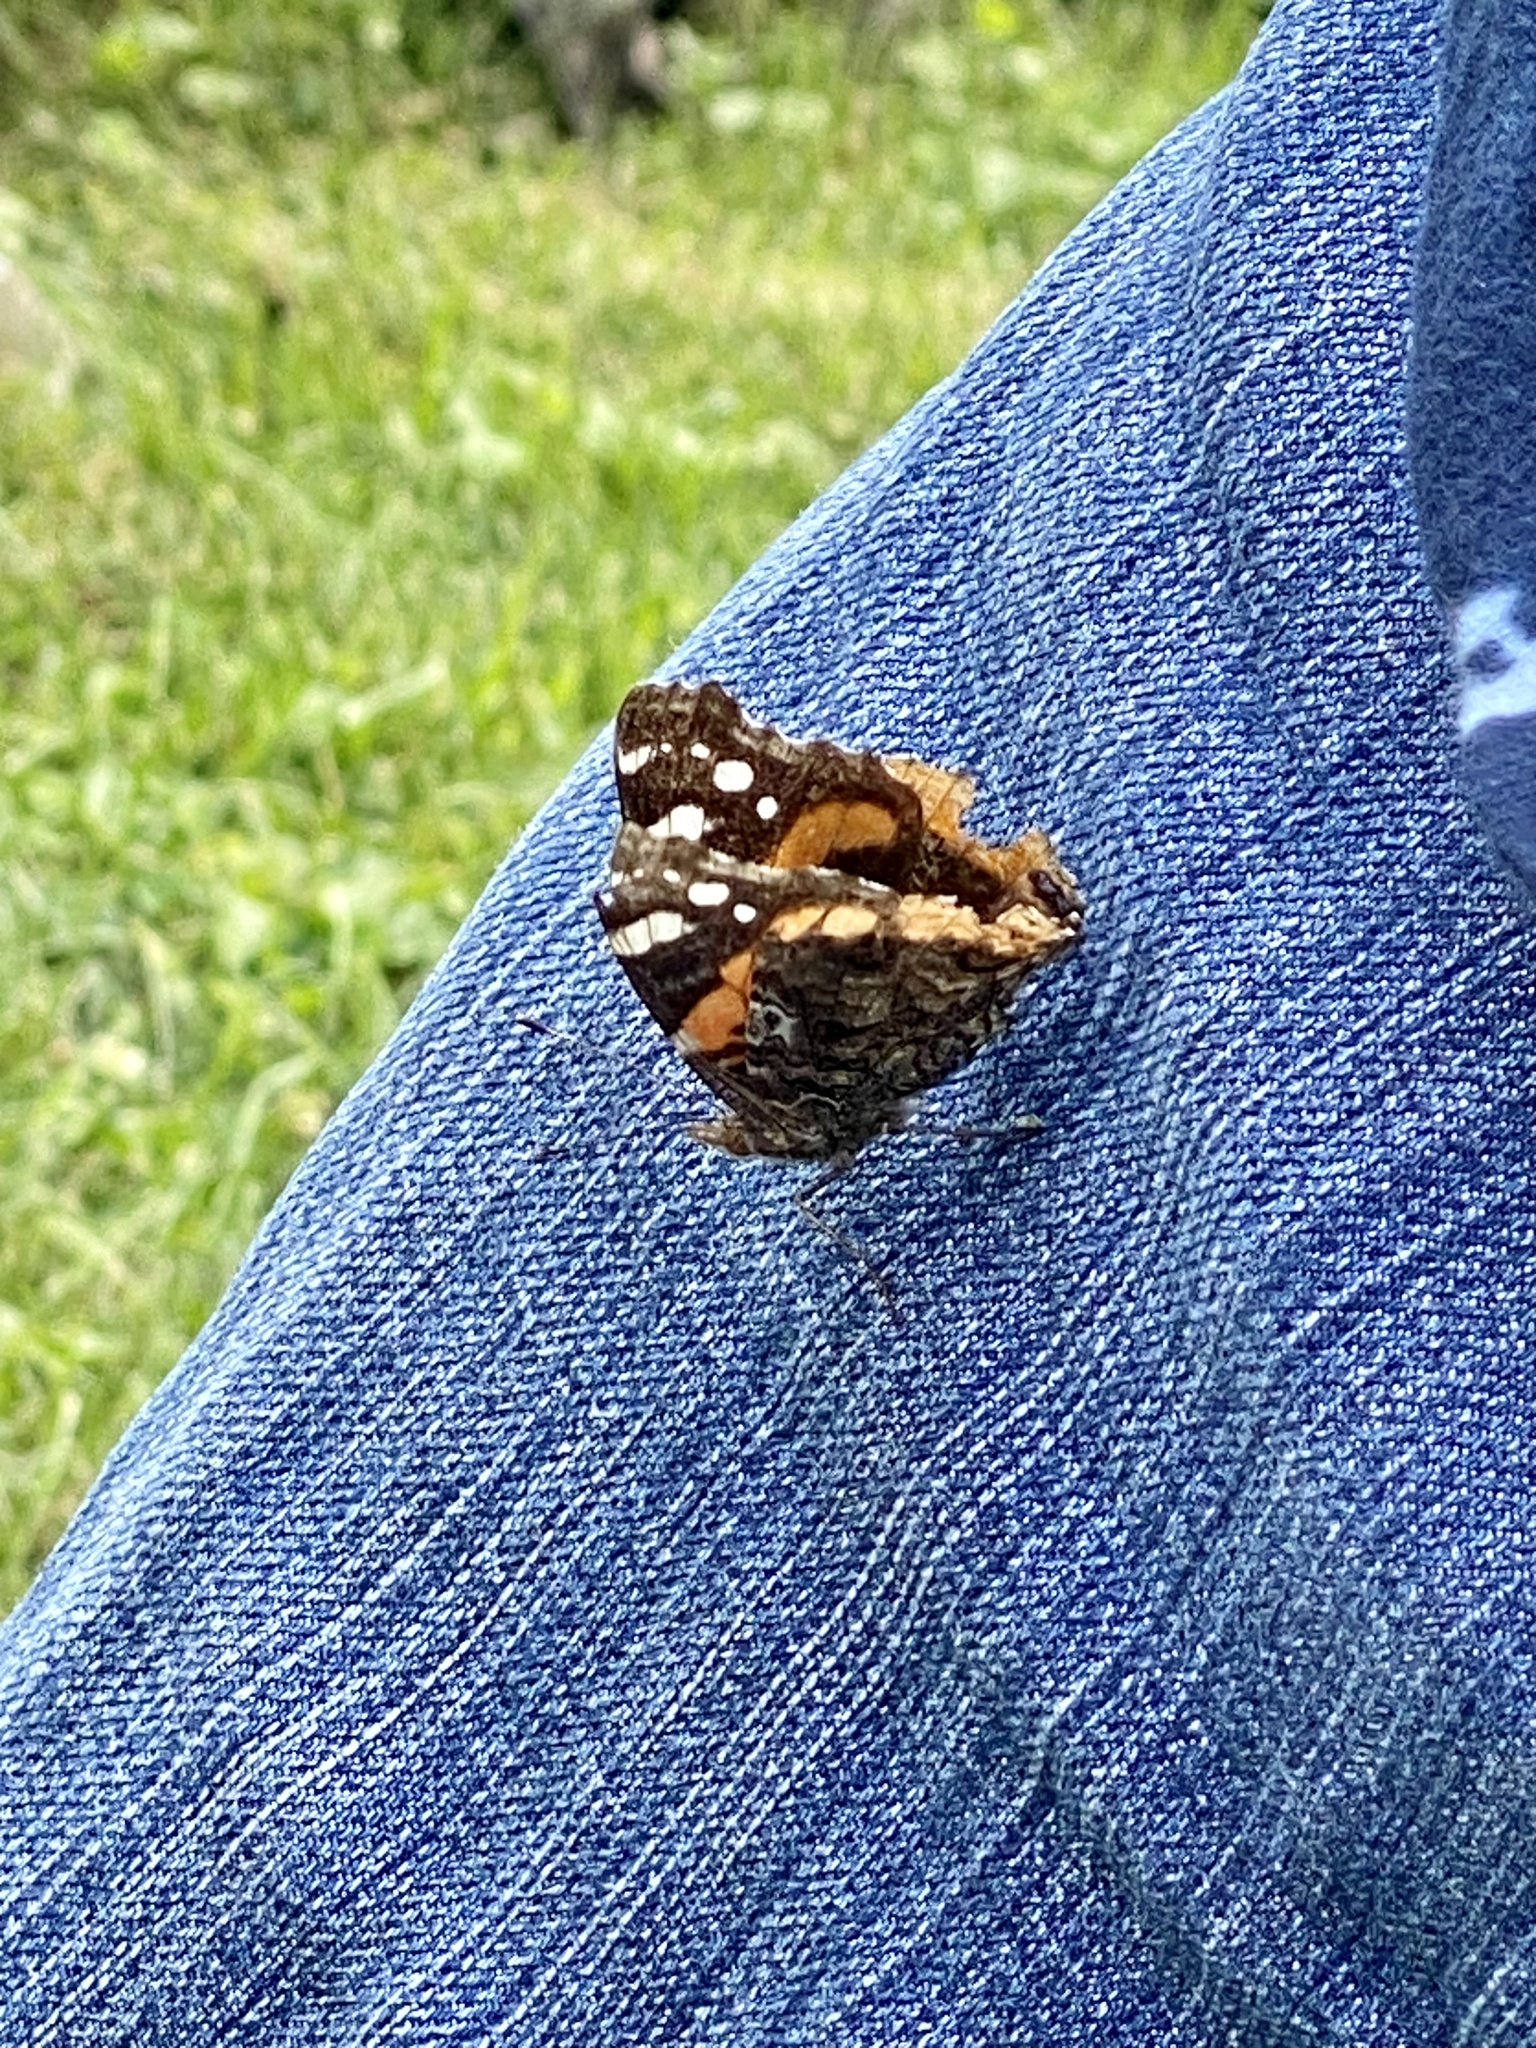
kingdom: Animalia
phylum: Arthropoda
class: Insecta
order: Lepidoptera
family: Nymphalidae
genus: Vanessa
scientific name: Vanessa atalanta
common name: Red admiral
